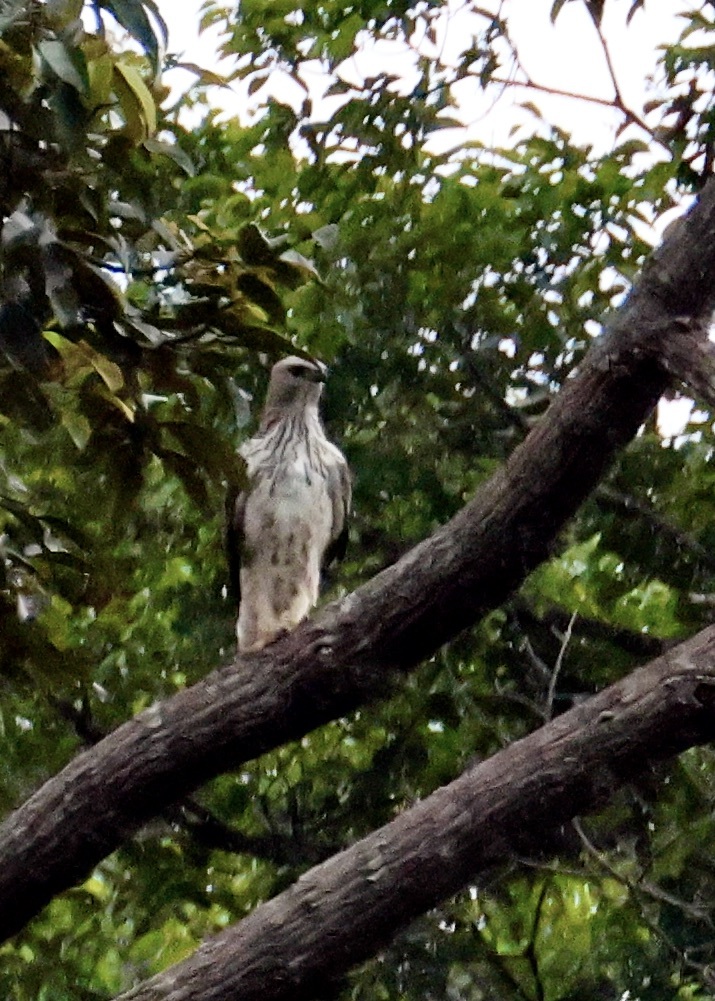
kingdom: Animalia
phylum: Chordata
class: Aves
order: Accipitriformes
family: Accipitridae
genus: Nisaetus
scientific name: Nisaetus cirrhatus
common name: Changeable hawk-eagle
